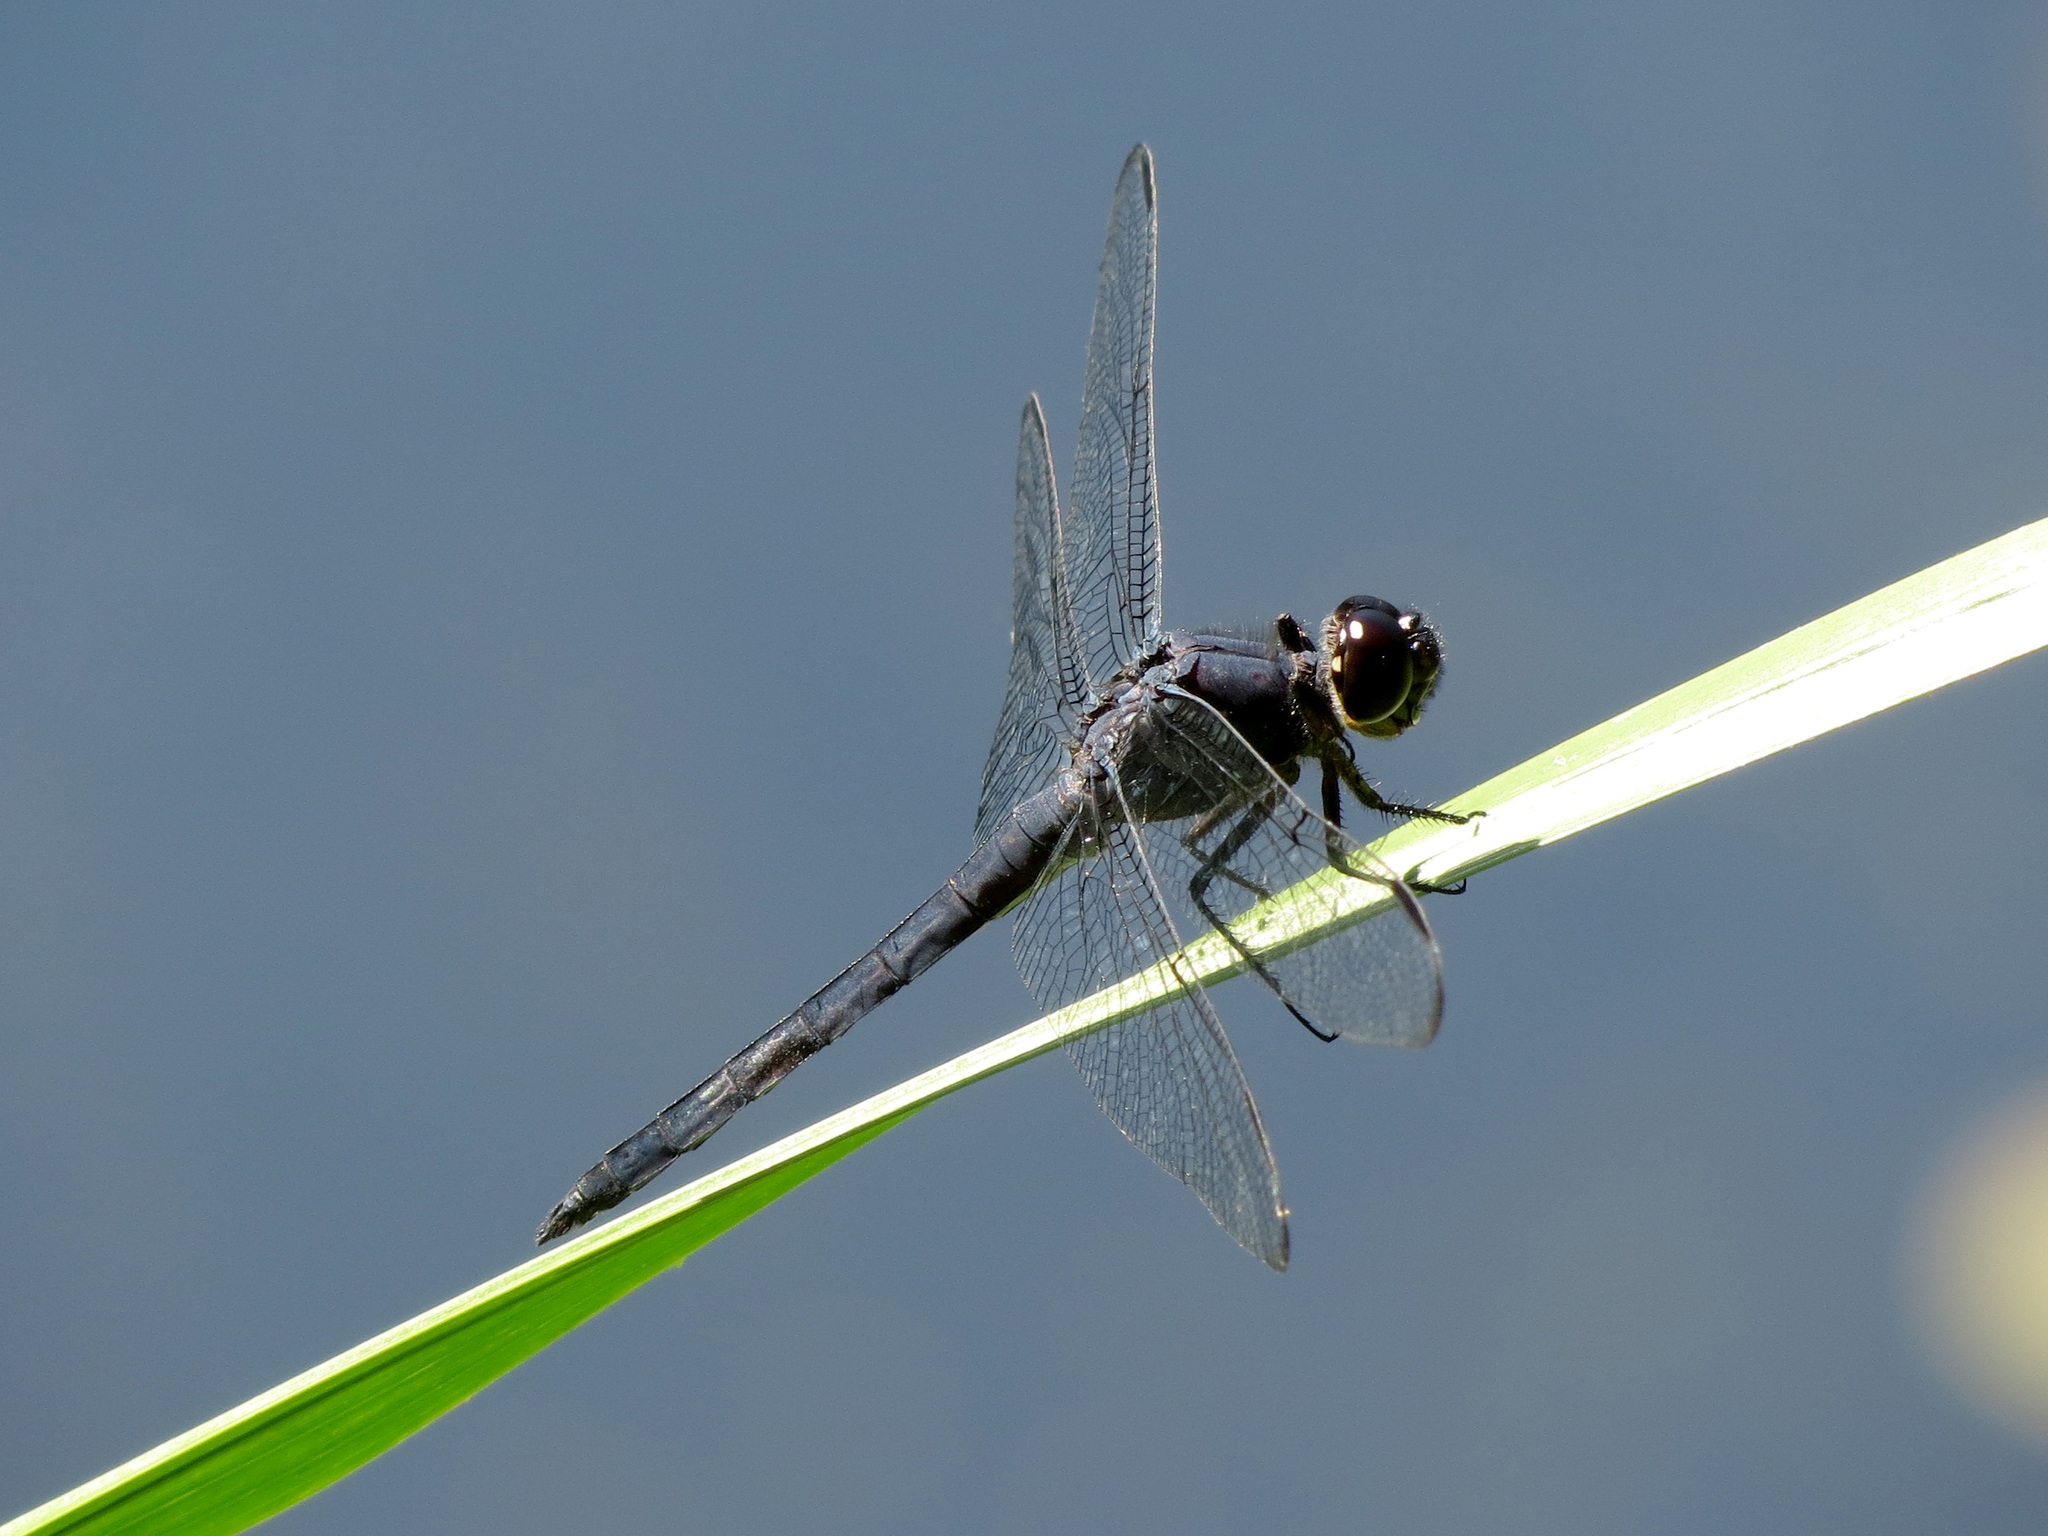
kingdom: Animalia
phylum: Arthropoda
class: Insecta
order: Odonata
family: Libellulidae
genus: Libellula
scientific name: Libellula incesta
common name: Slaty skimmer
